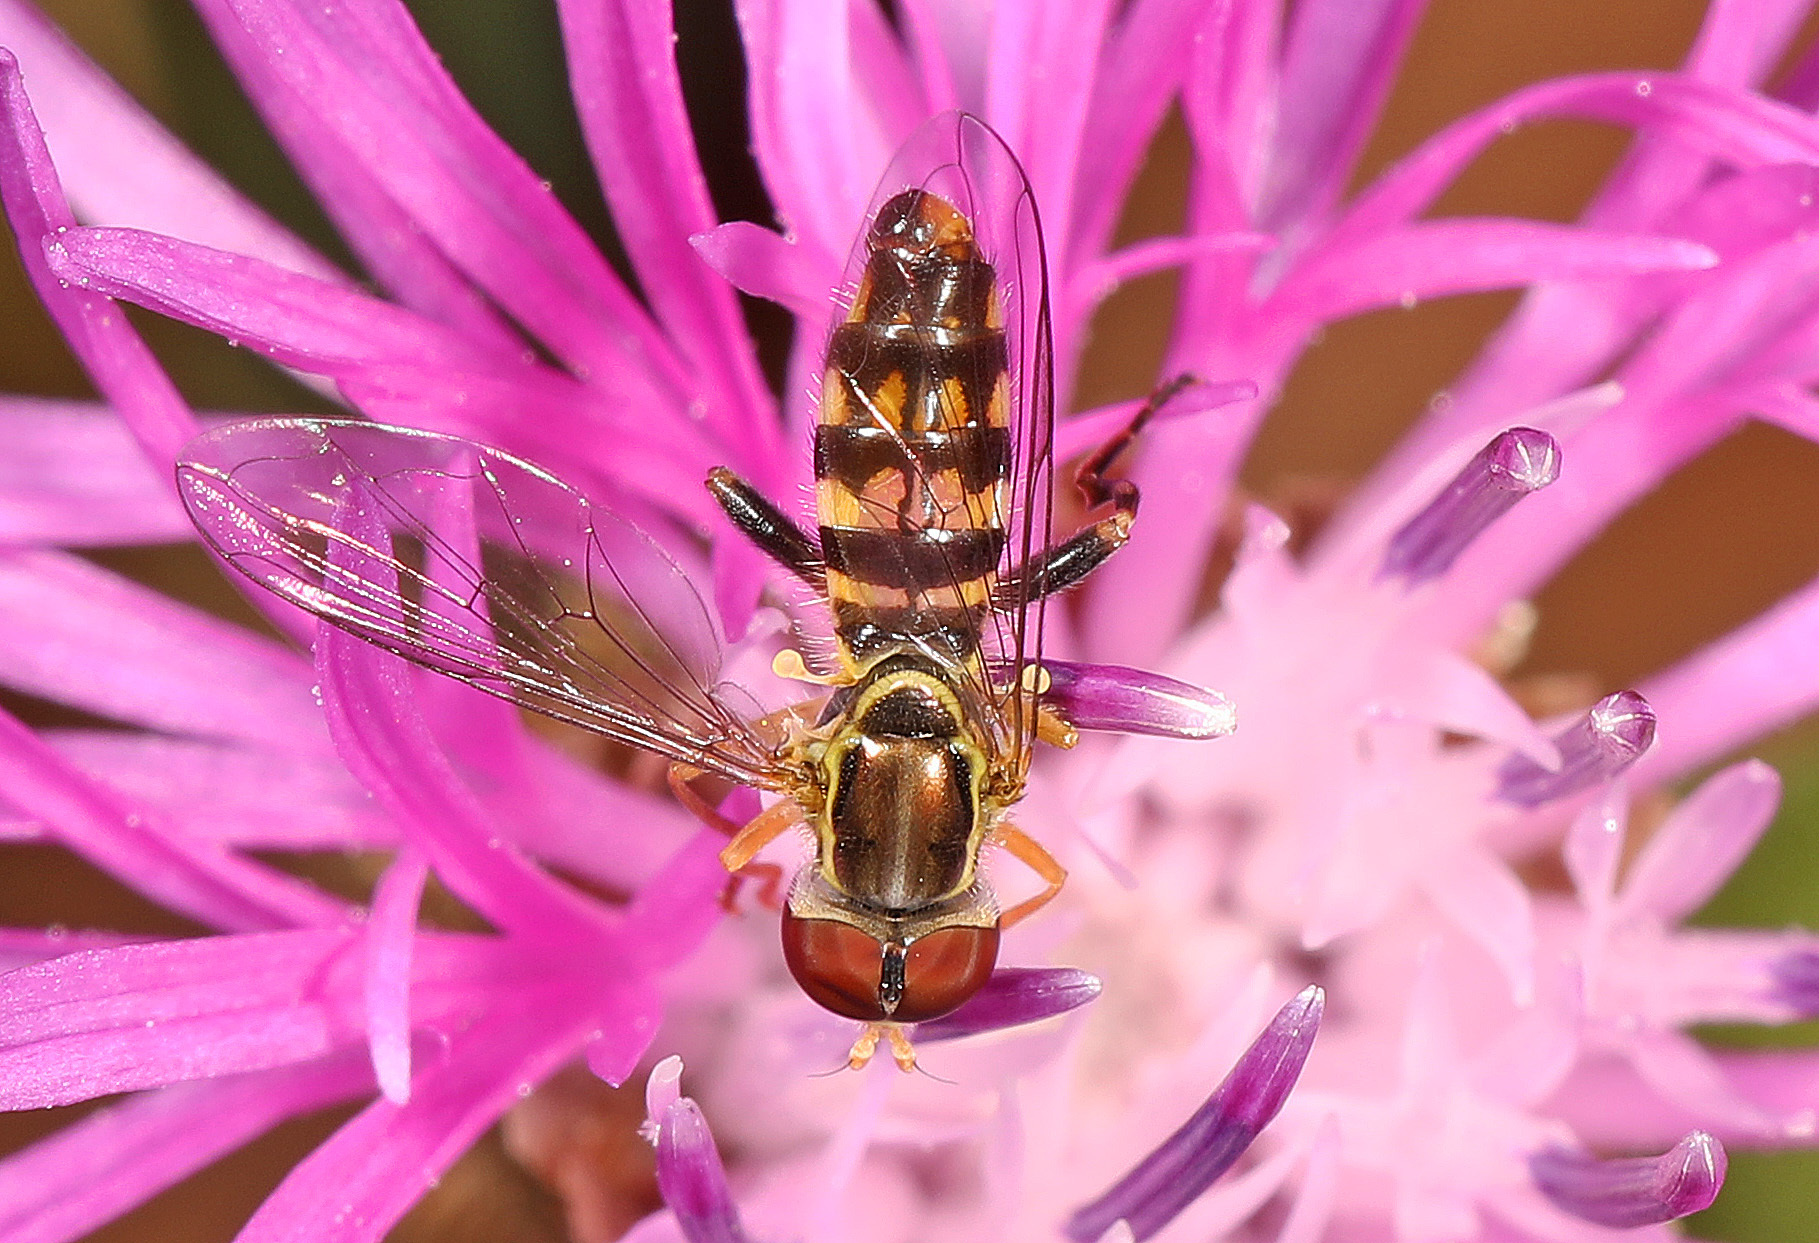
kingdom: Animalia
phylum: Arthropoda
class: Insecta
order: Diptera
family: Syrphidae
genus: Toxomerus
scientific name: Toxomerus geminatus
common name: Eastern calligrapher
